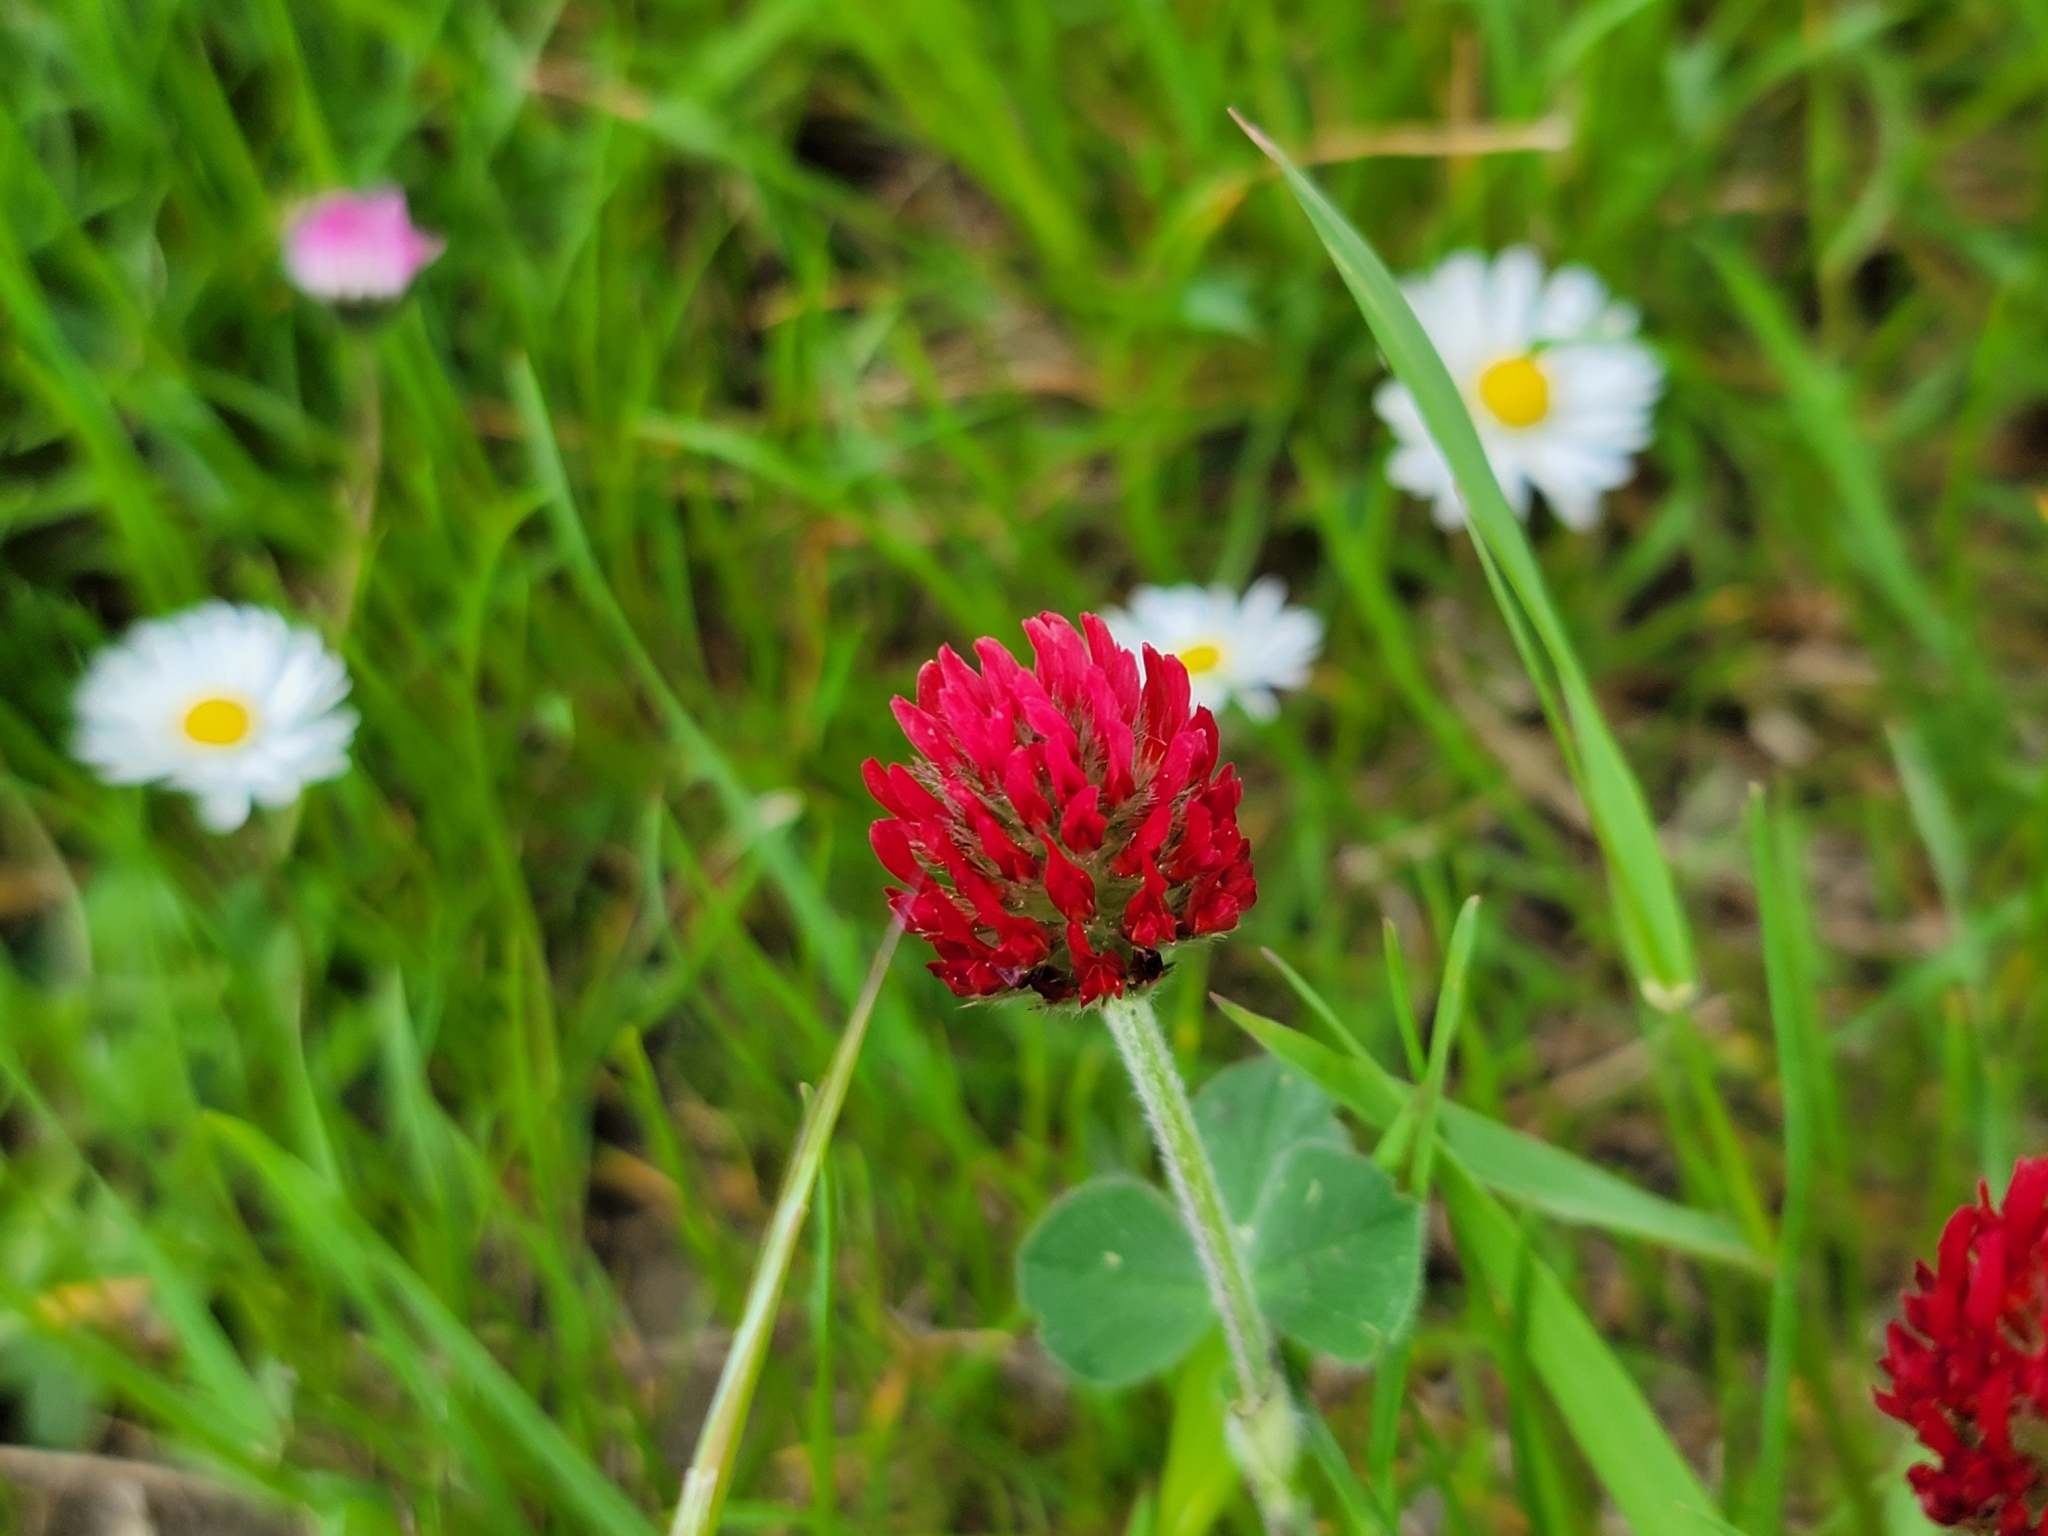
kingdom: Plantae
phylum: Tracheophyta
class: Magnoliopsida
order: Fabales
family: Fabaceae
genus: Trifolium
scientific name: Trifolium incarnatum
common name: Crimson clover
